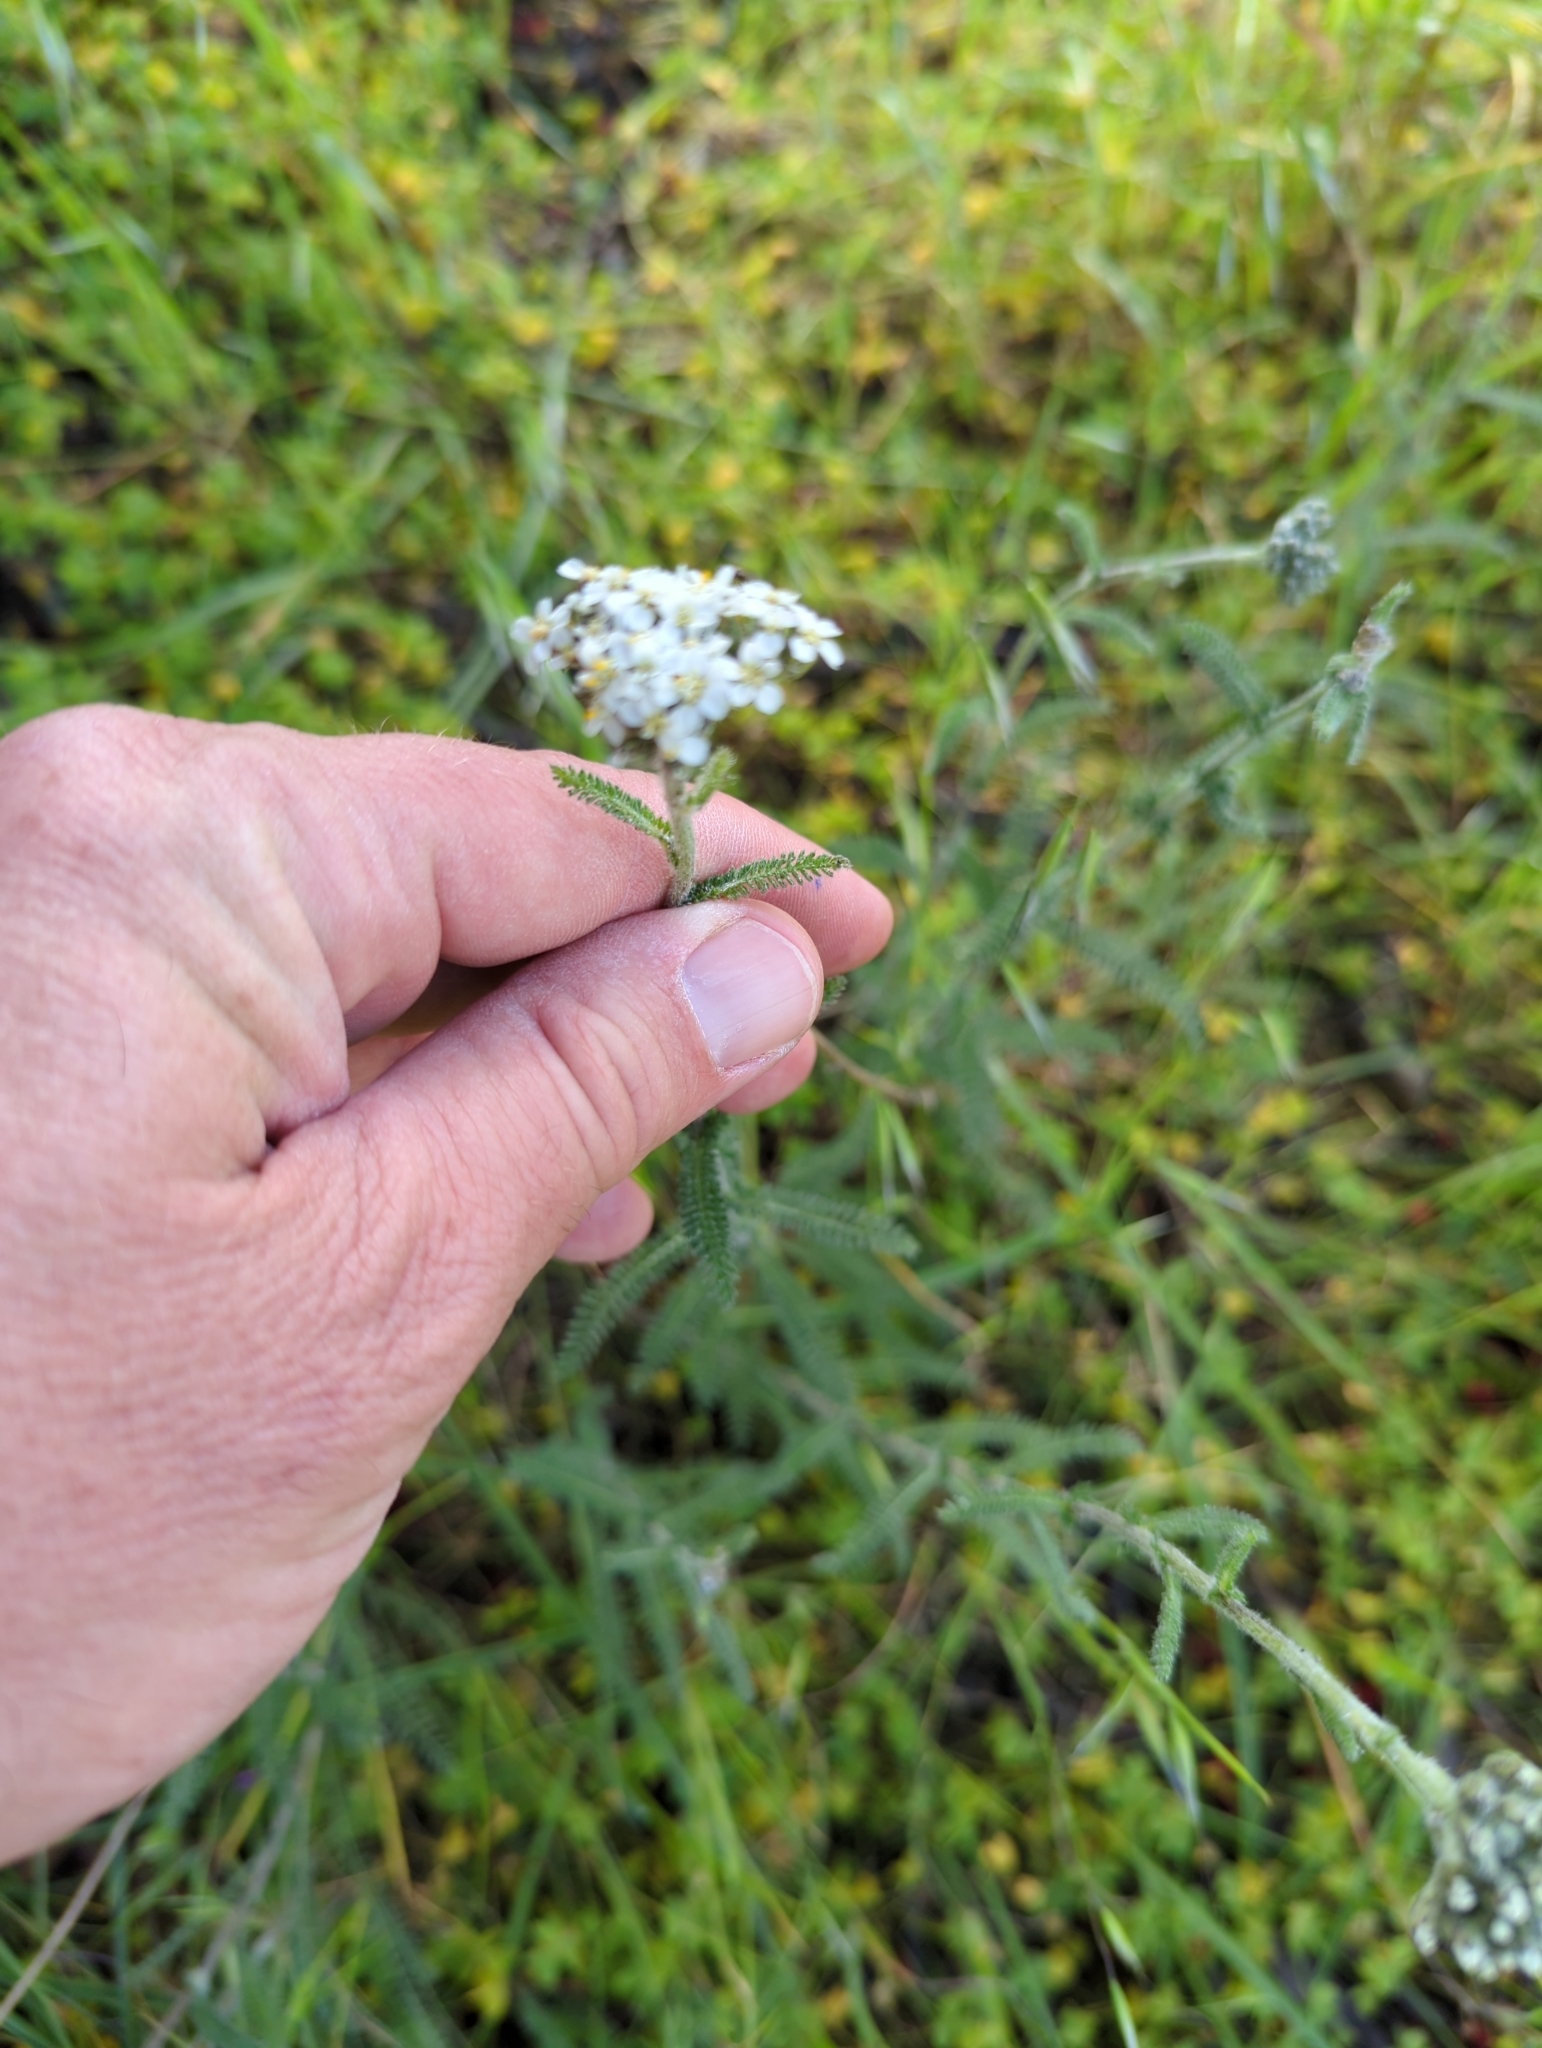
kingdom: Plantae
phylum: Tracheophyta
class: Magnoliopsida
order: Asterales
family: Asteraceae
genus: Achillea
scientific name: Achillea millefolium
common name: Yarrow
